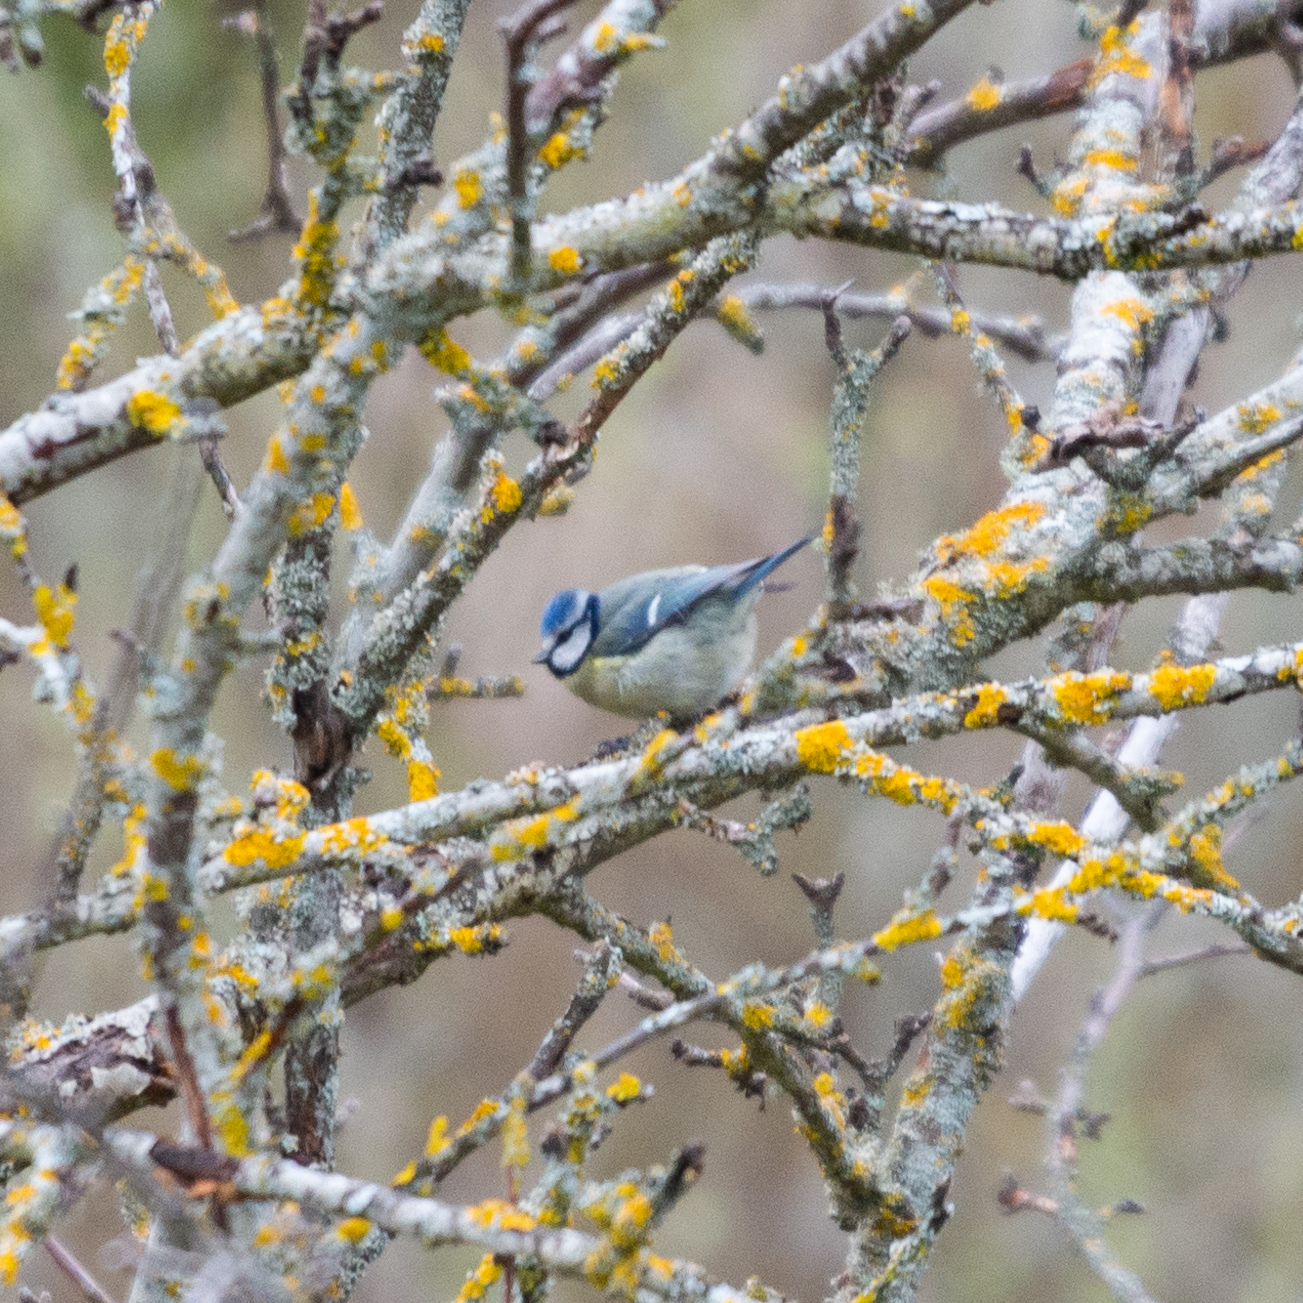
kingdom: Animalia
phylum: Chordata
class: Aves
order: Passeriformes
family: Paridae
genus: Cyanistes
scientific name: Cyanistes caeruleus
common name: Eurasian blue tit
